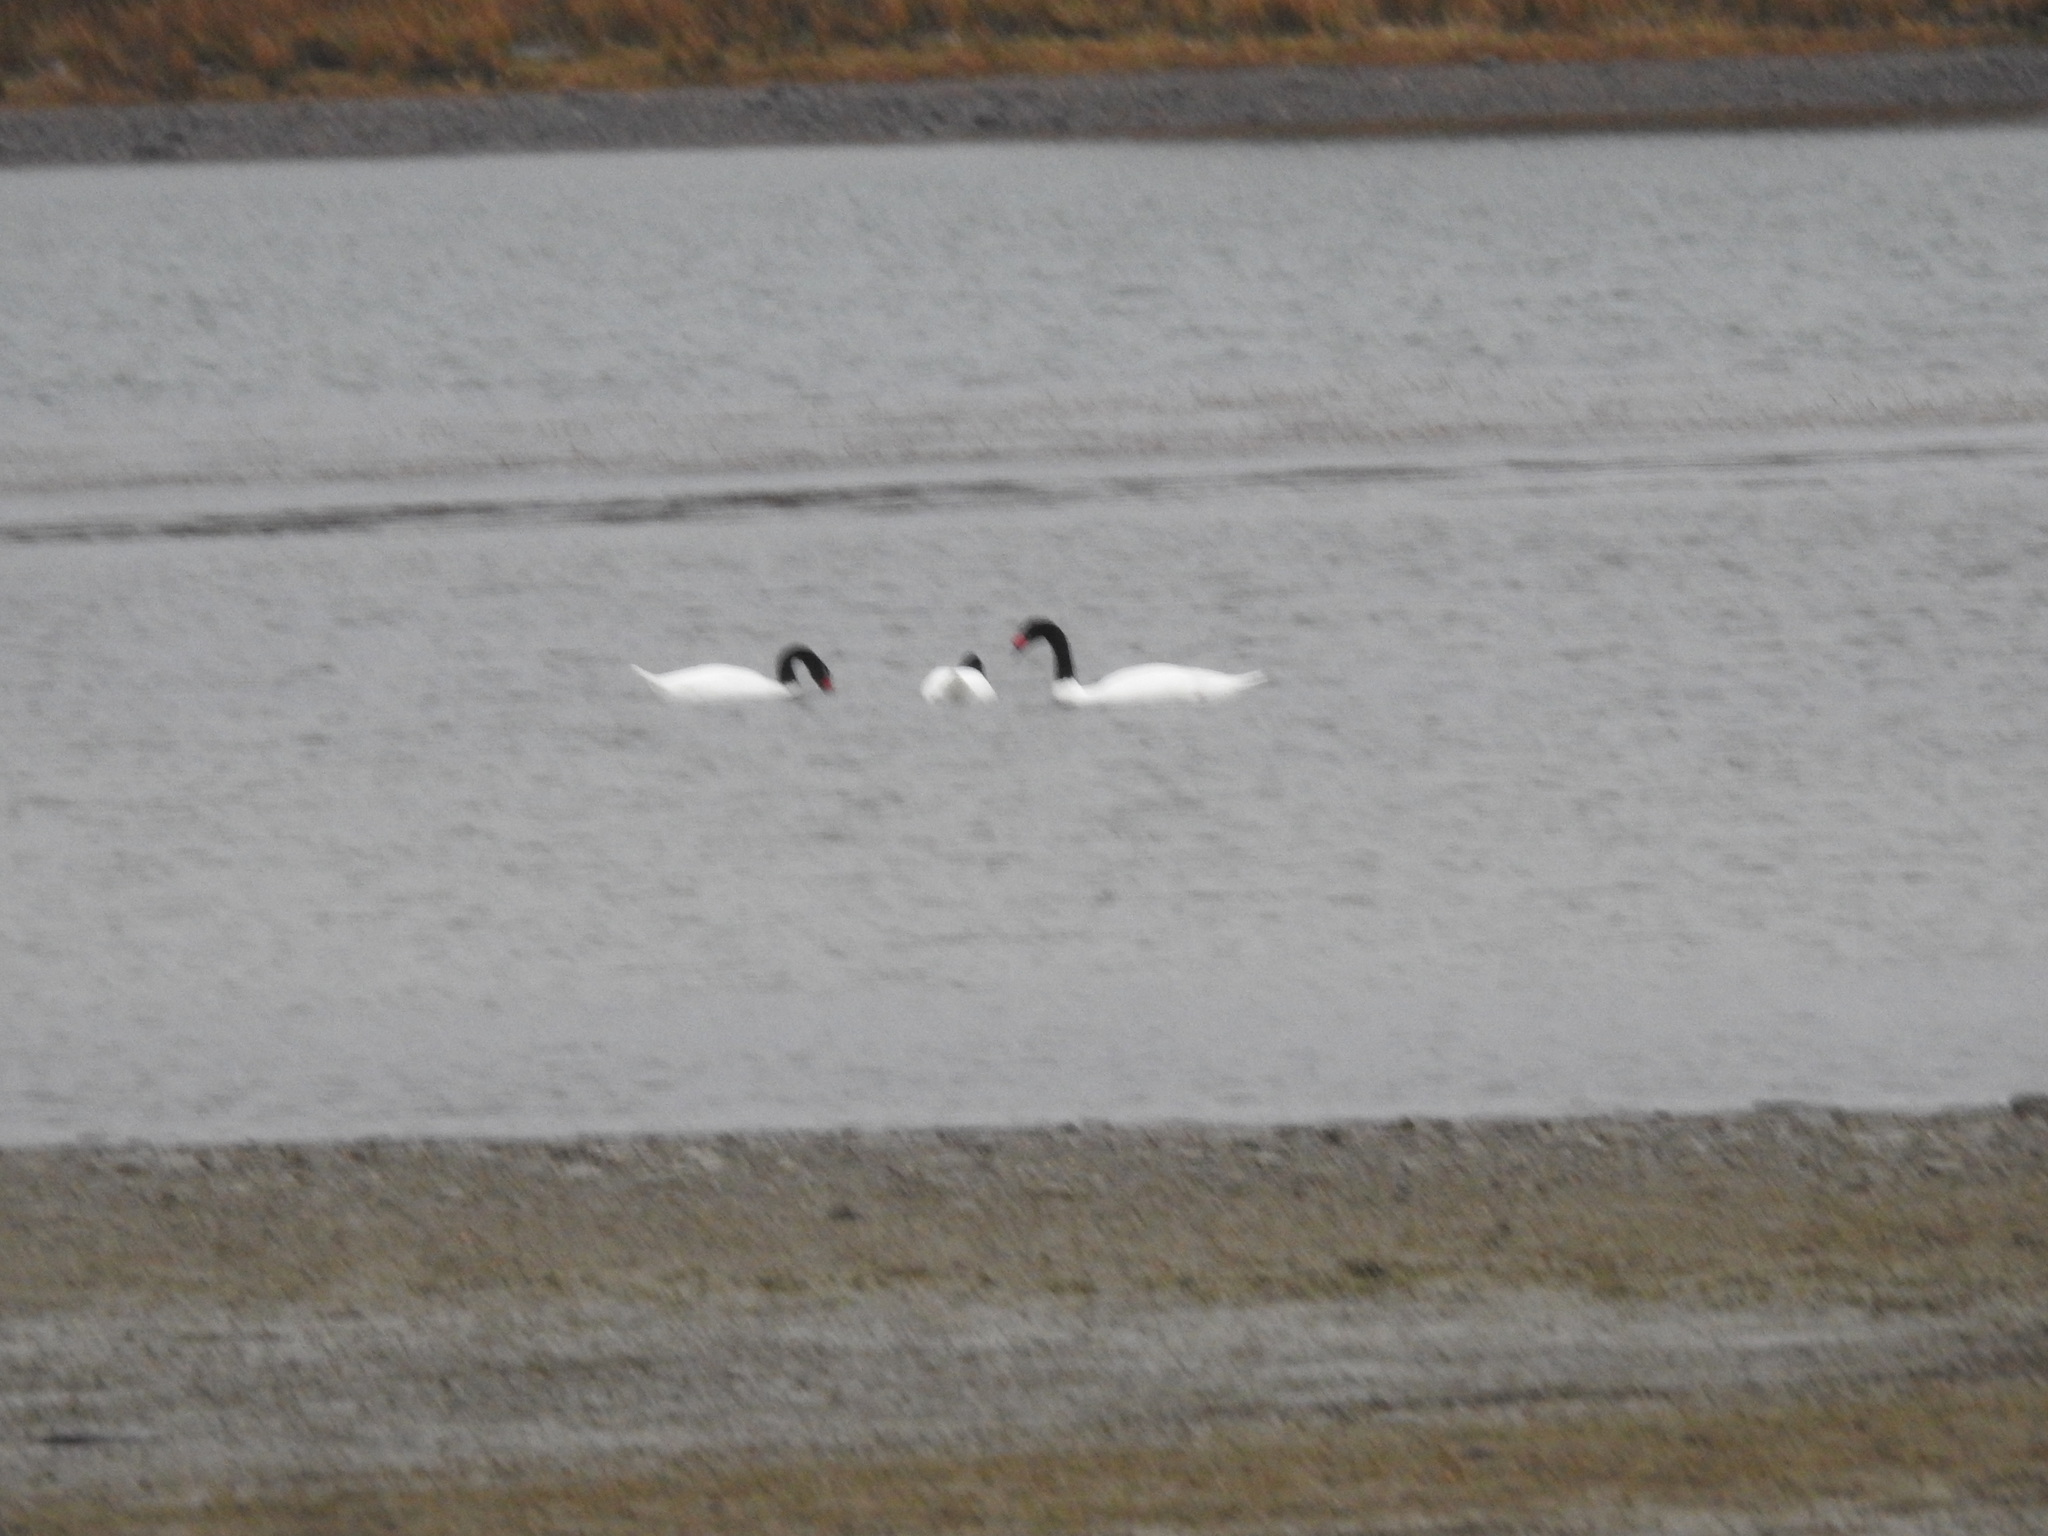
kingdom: Animalia
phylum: Chordata
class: Aves
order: Anseriformes
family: Anatidae
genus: Cygnus
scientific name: Cygnus melancoryphus
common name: Black-necked swan
